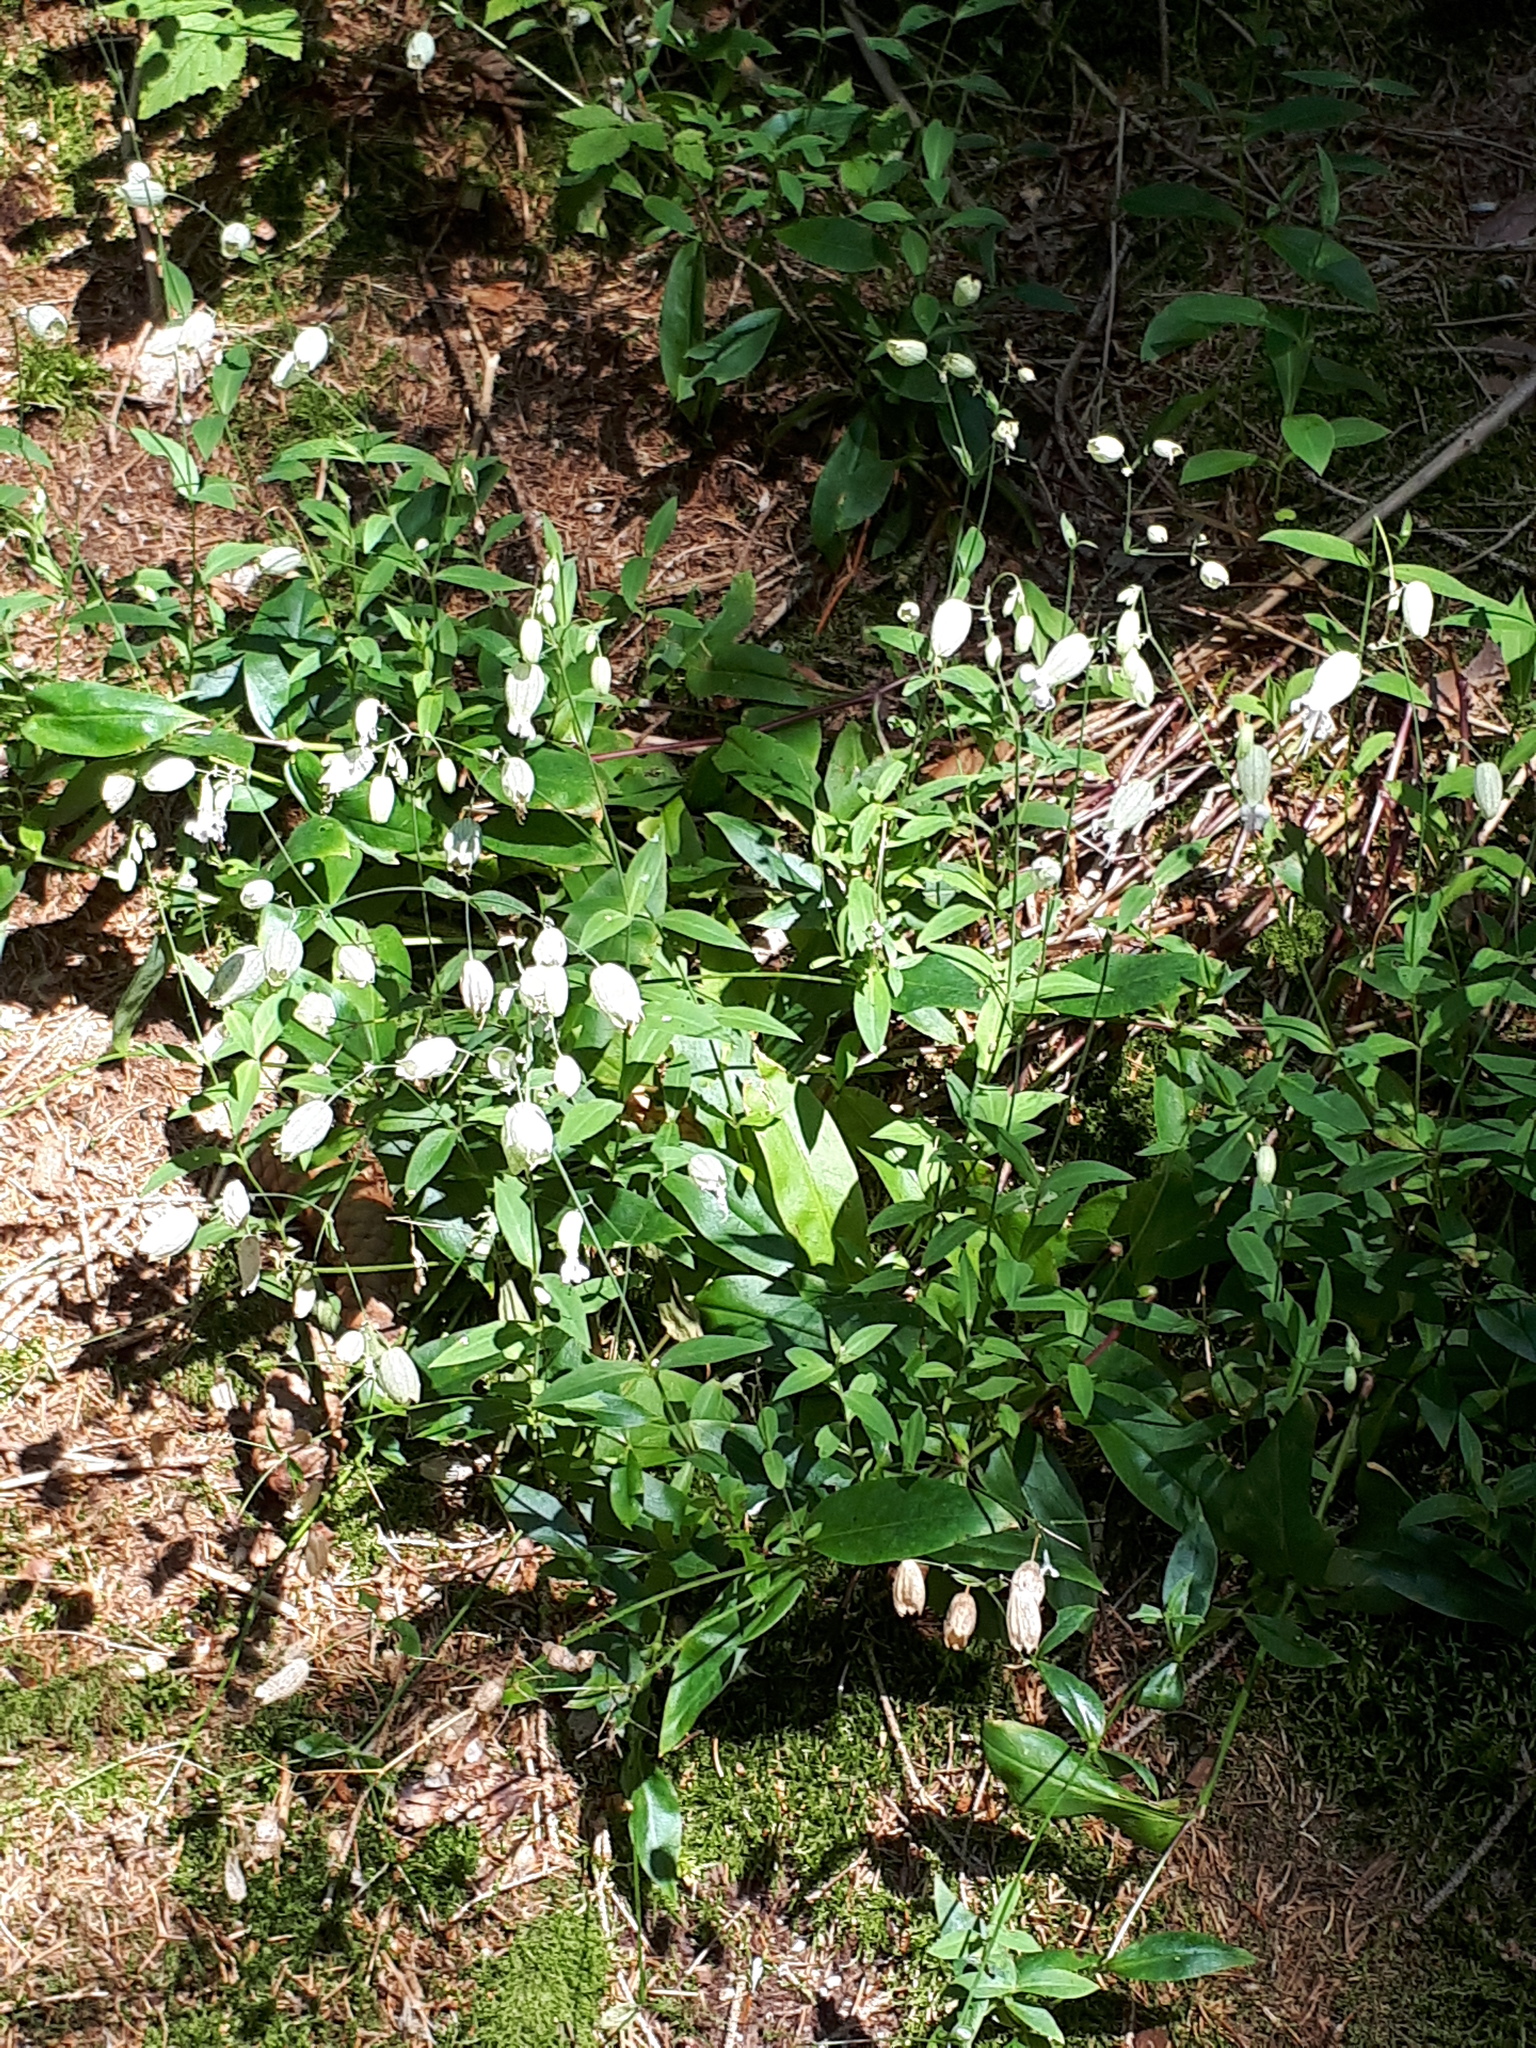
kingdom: Plantae
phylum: Tracheophyta
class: Magnoliopsida
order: Caryophyllales
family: Caryophyllaceae
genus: Silene
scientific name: Silene vulgaris
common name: Bladder campion
